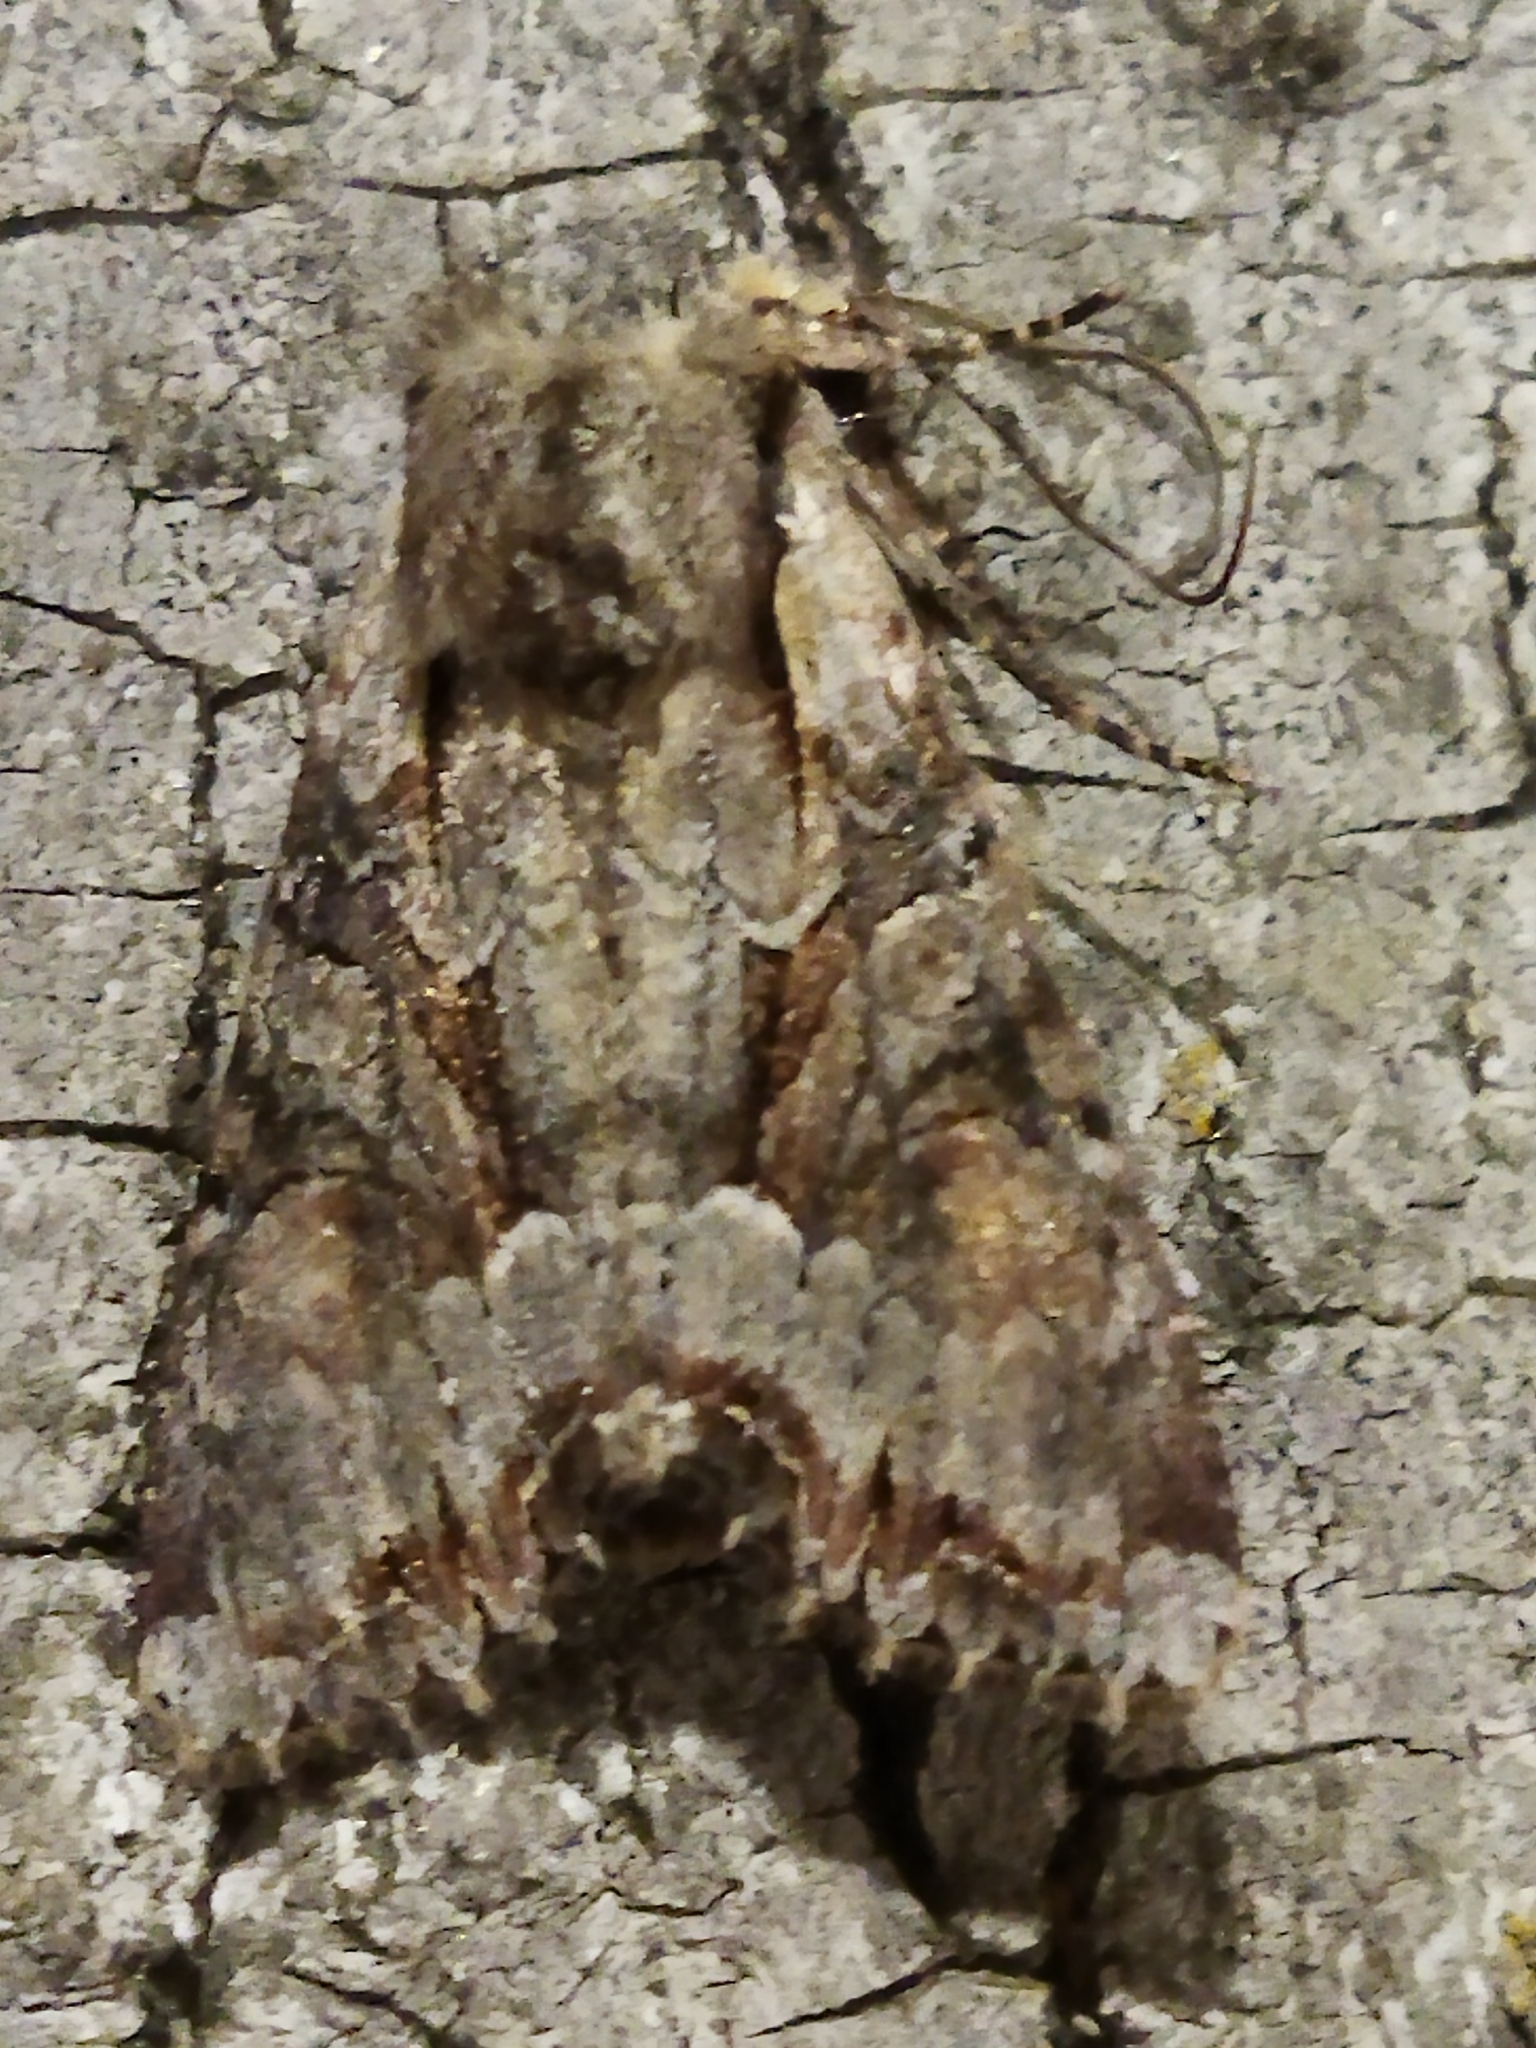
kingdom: Animalia
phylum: Arthropoda
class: Insecta
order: Lepidoptera
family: Noctuidae
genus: Lacanobia
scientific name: Lacanobia w-latinum
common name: Light brocade
